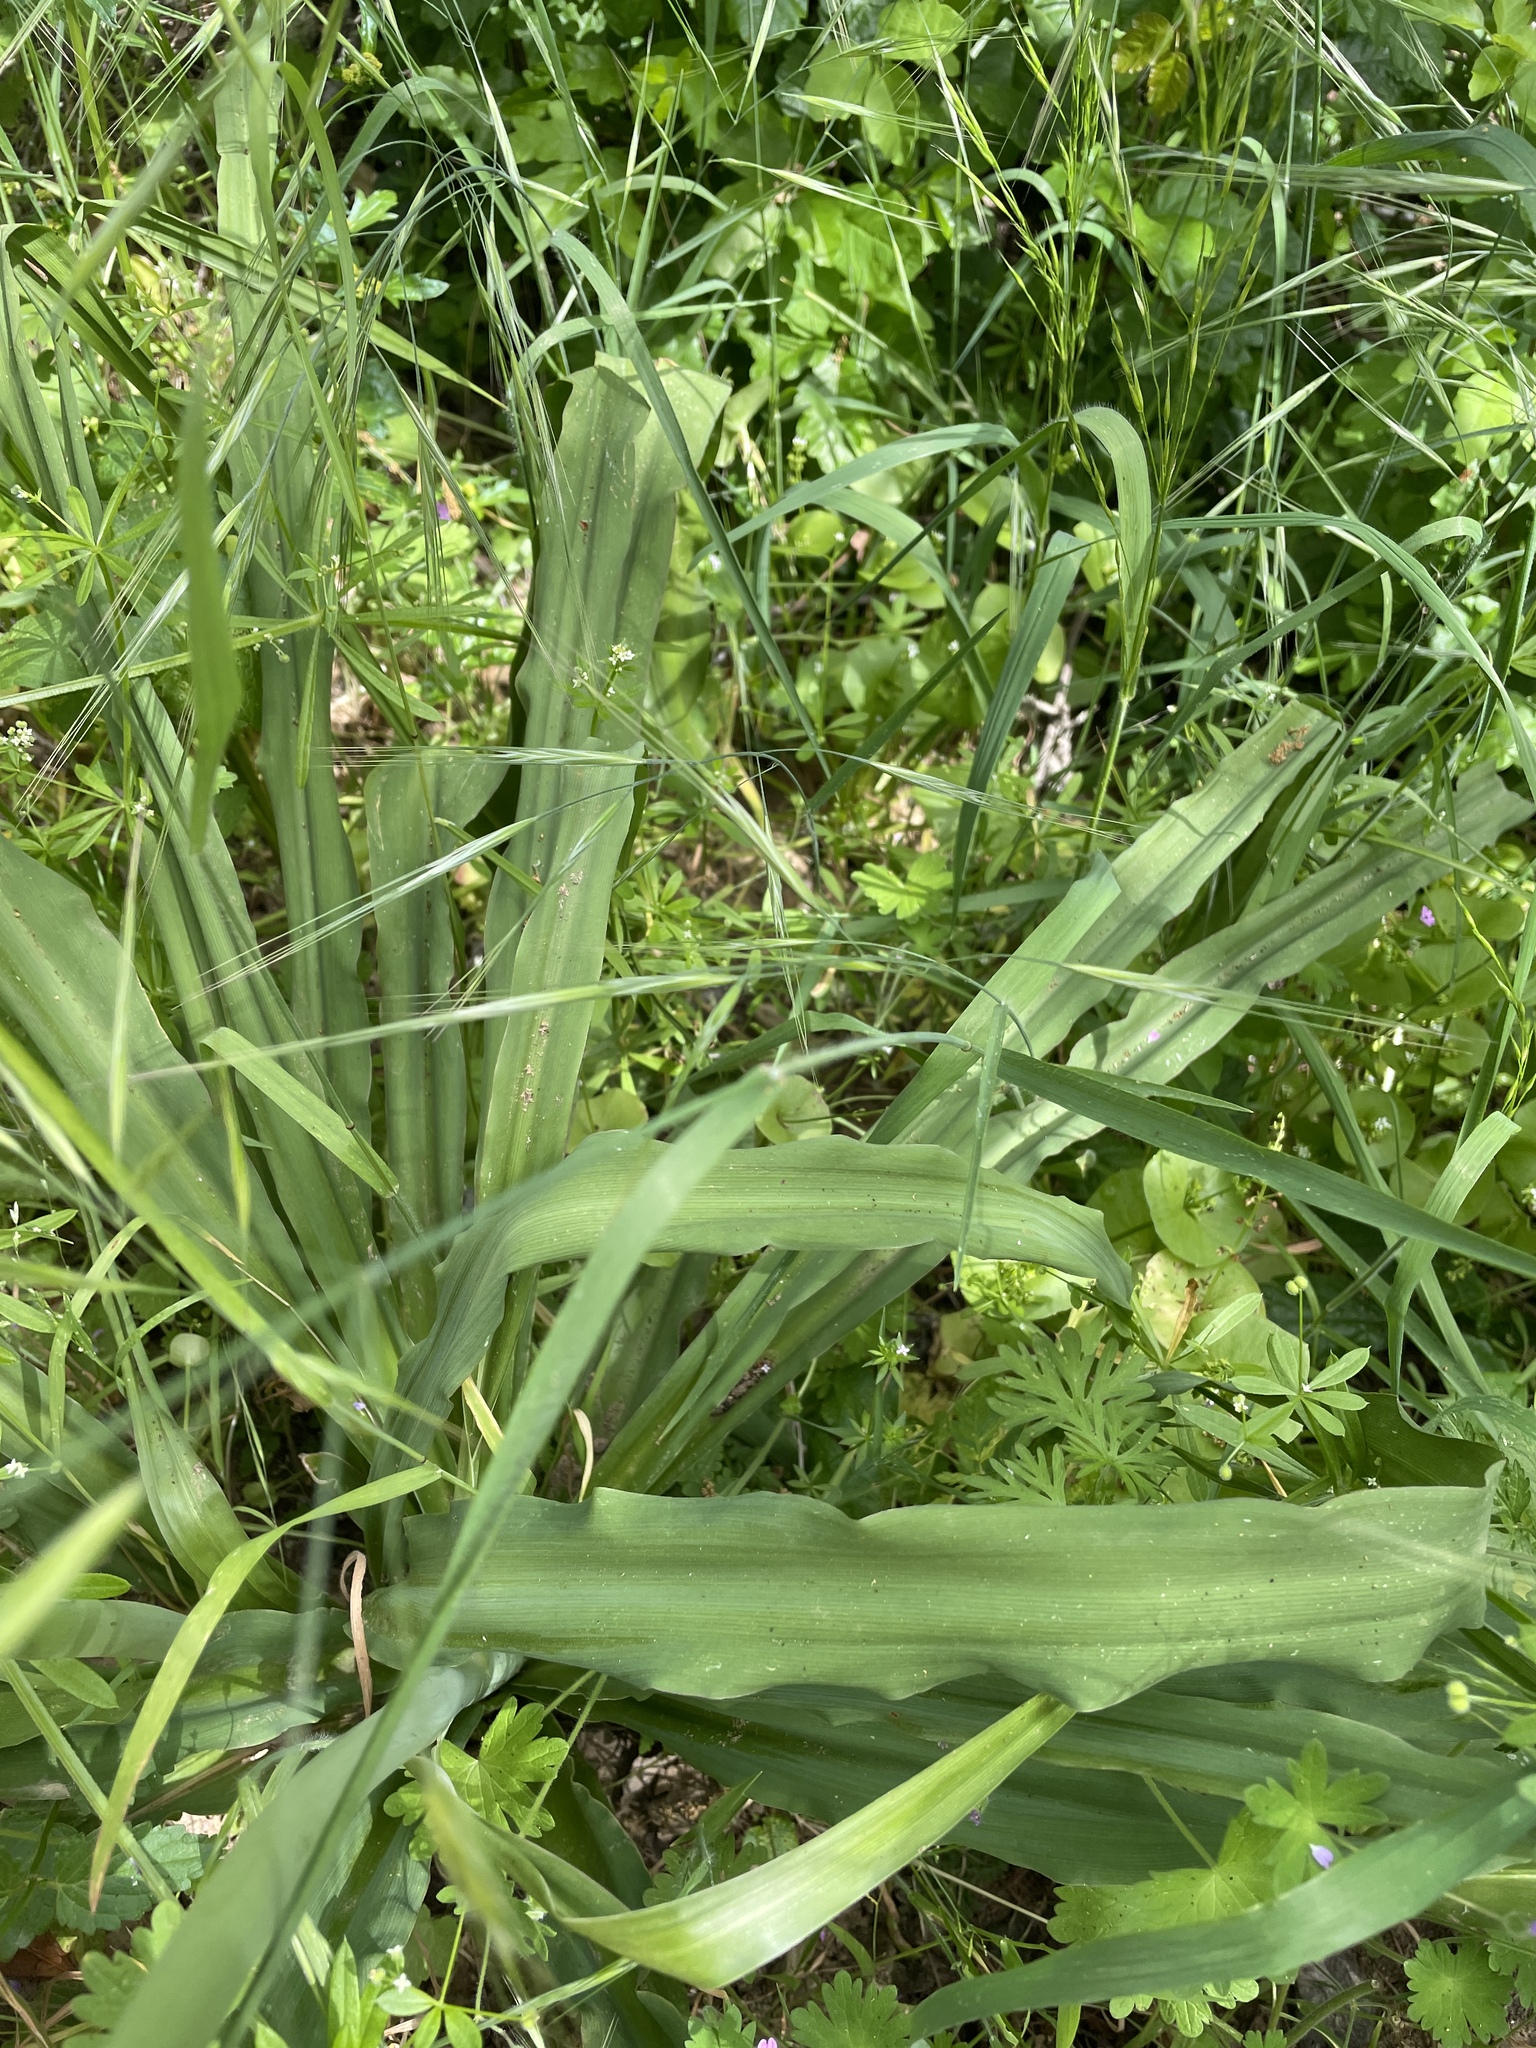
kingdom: Plantae
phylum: Tracheophyta
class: Liliopsida
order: Asparagales
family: Asparagaceae
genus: Chlorogalum
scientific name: Chlorogalum pomeridianum
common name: Amole
